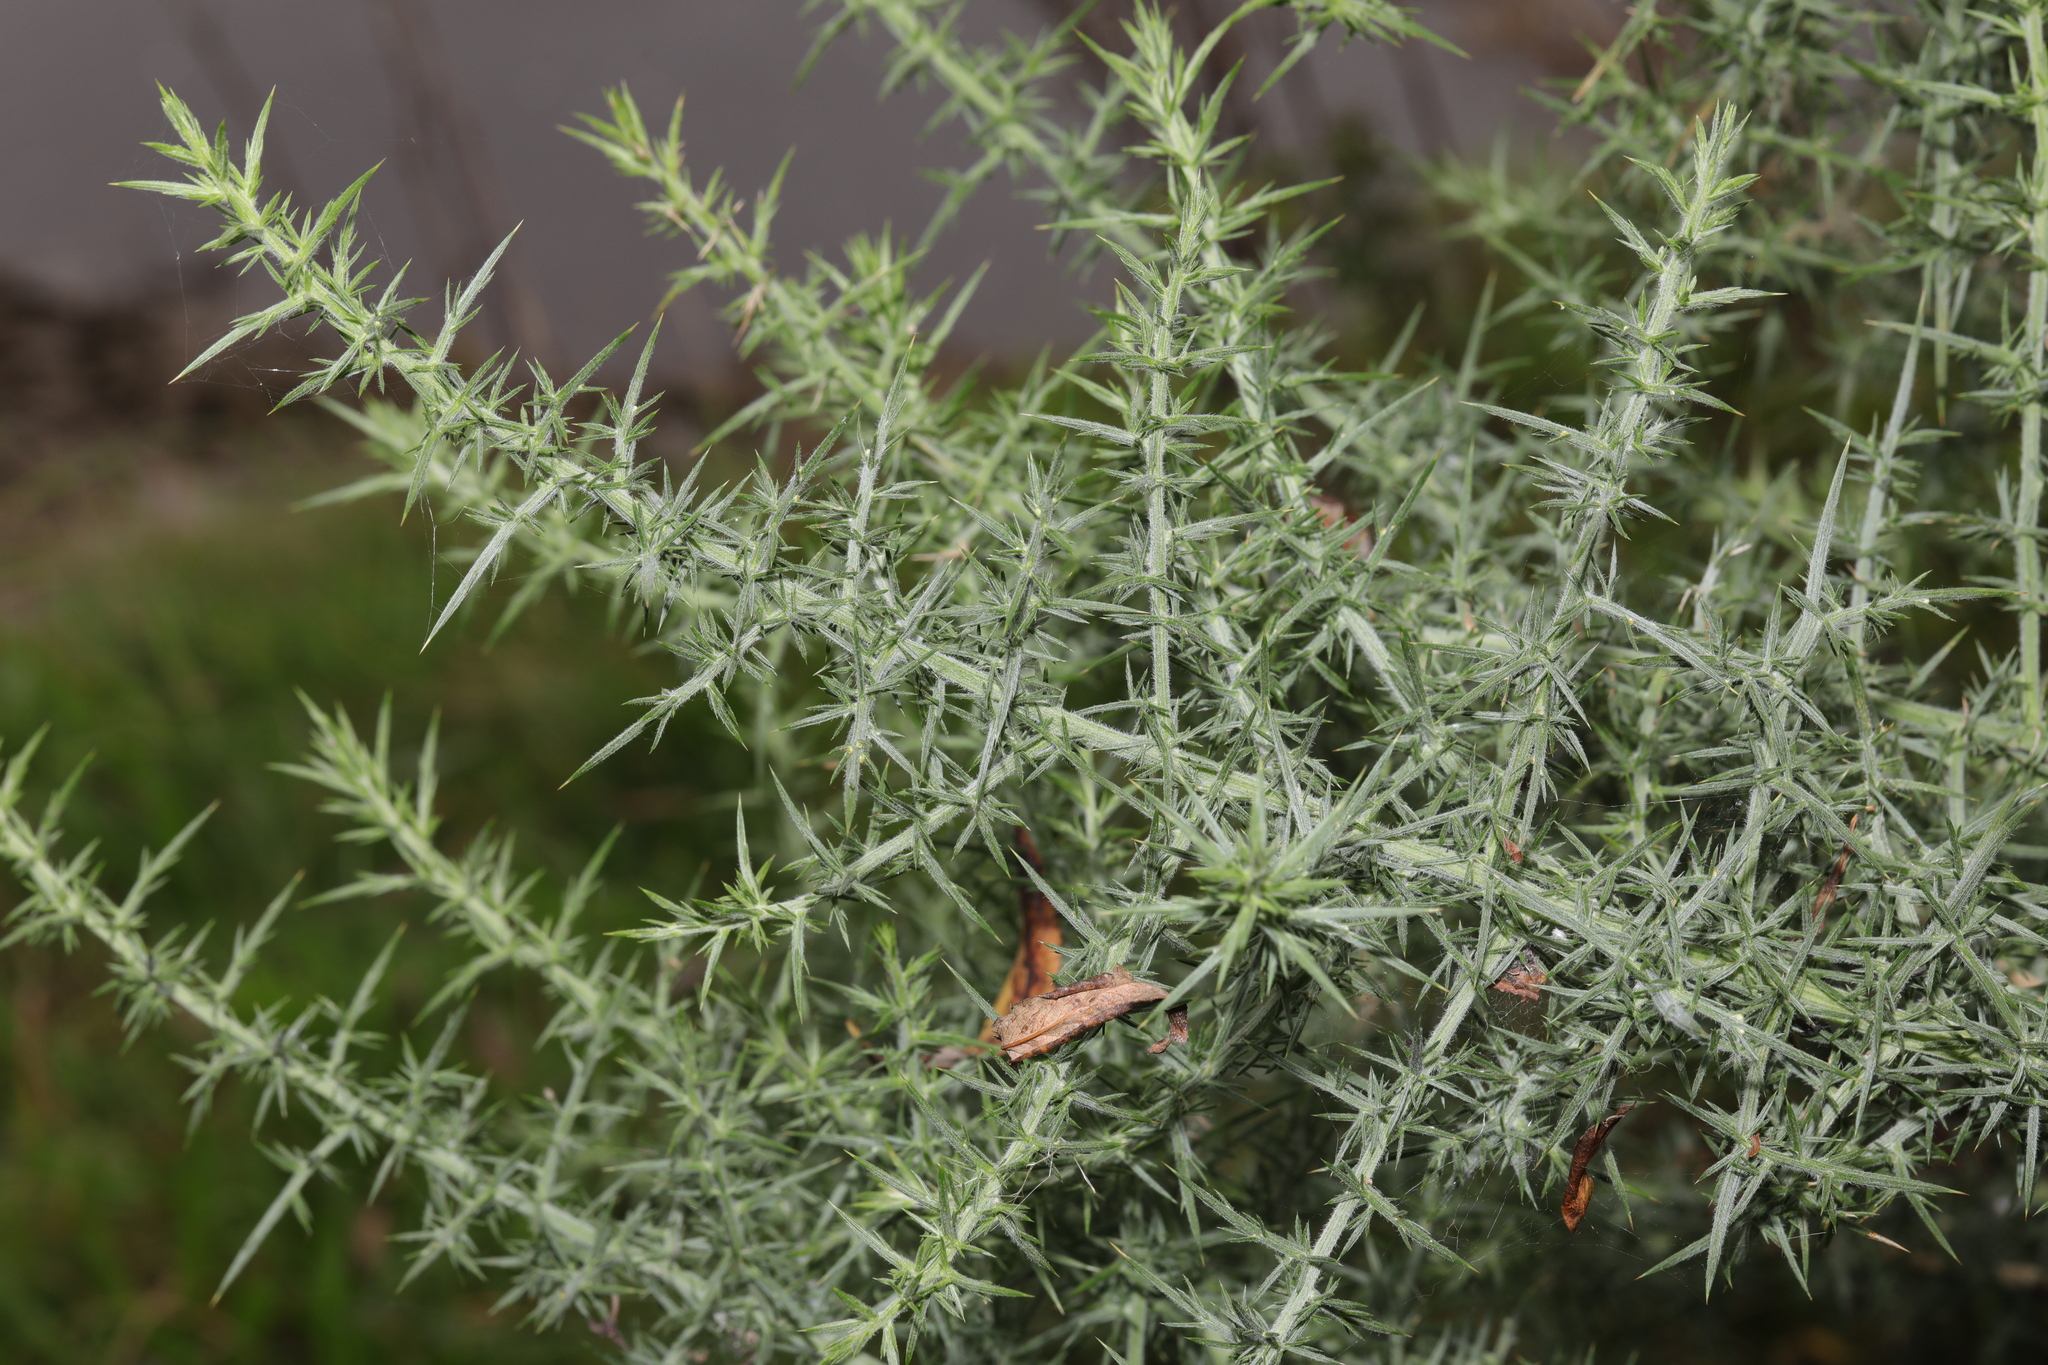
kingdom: Plantae
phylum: Tracheophyta
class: Magnoliopsida
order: Fabales
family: Fabaceae
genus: Ulex
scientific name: Ulex europaeus
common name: Common gorse
